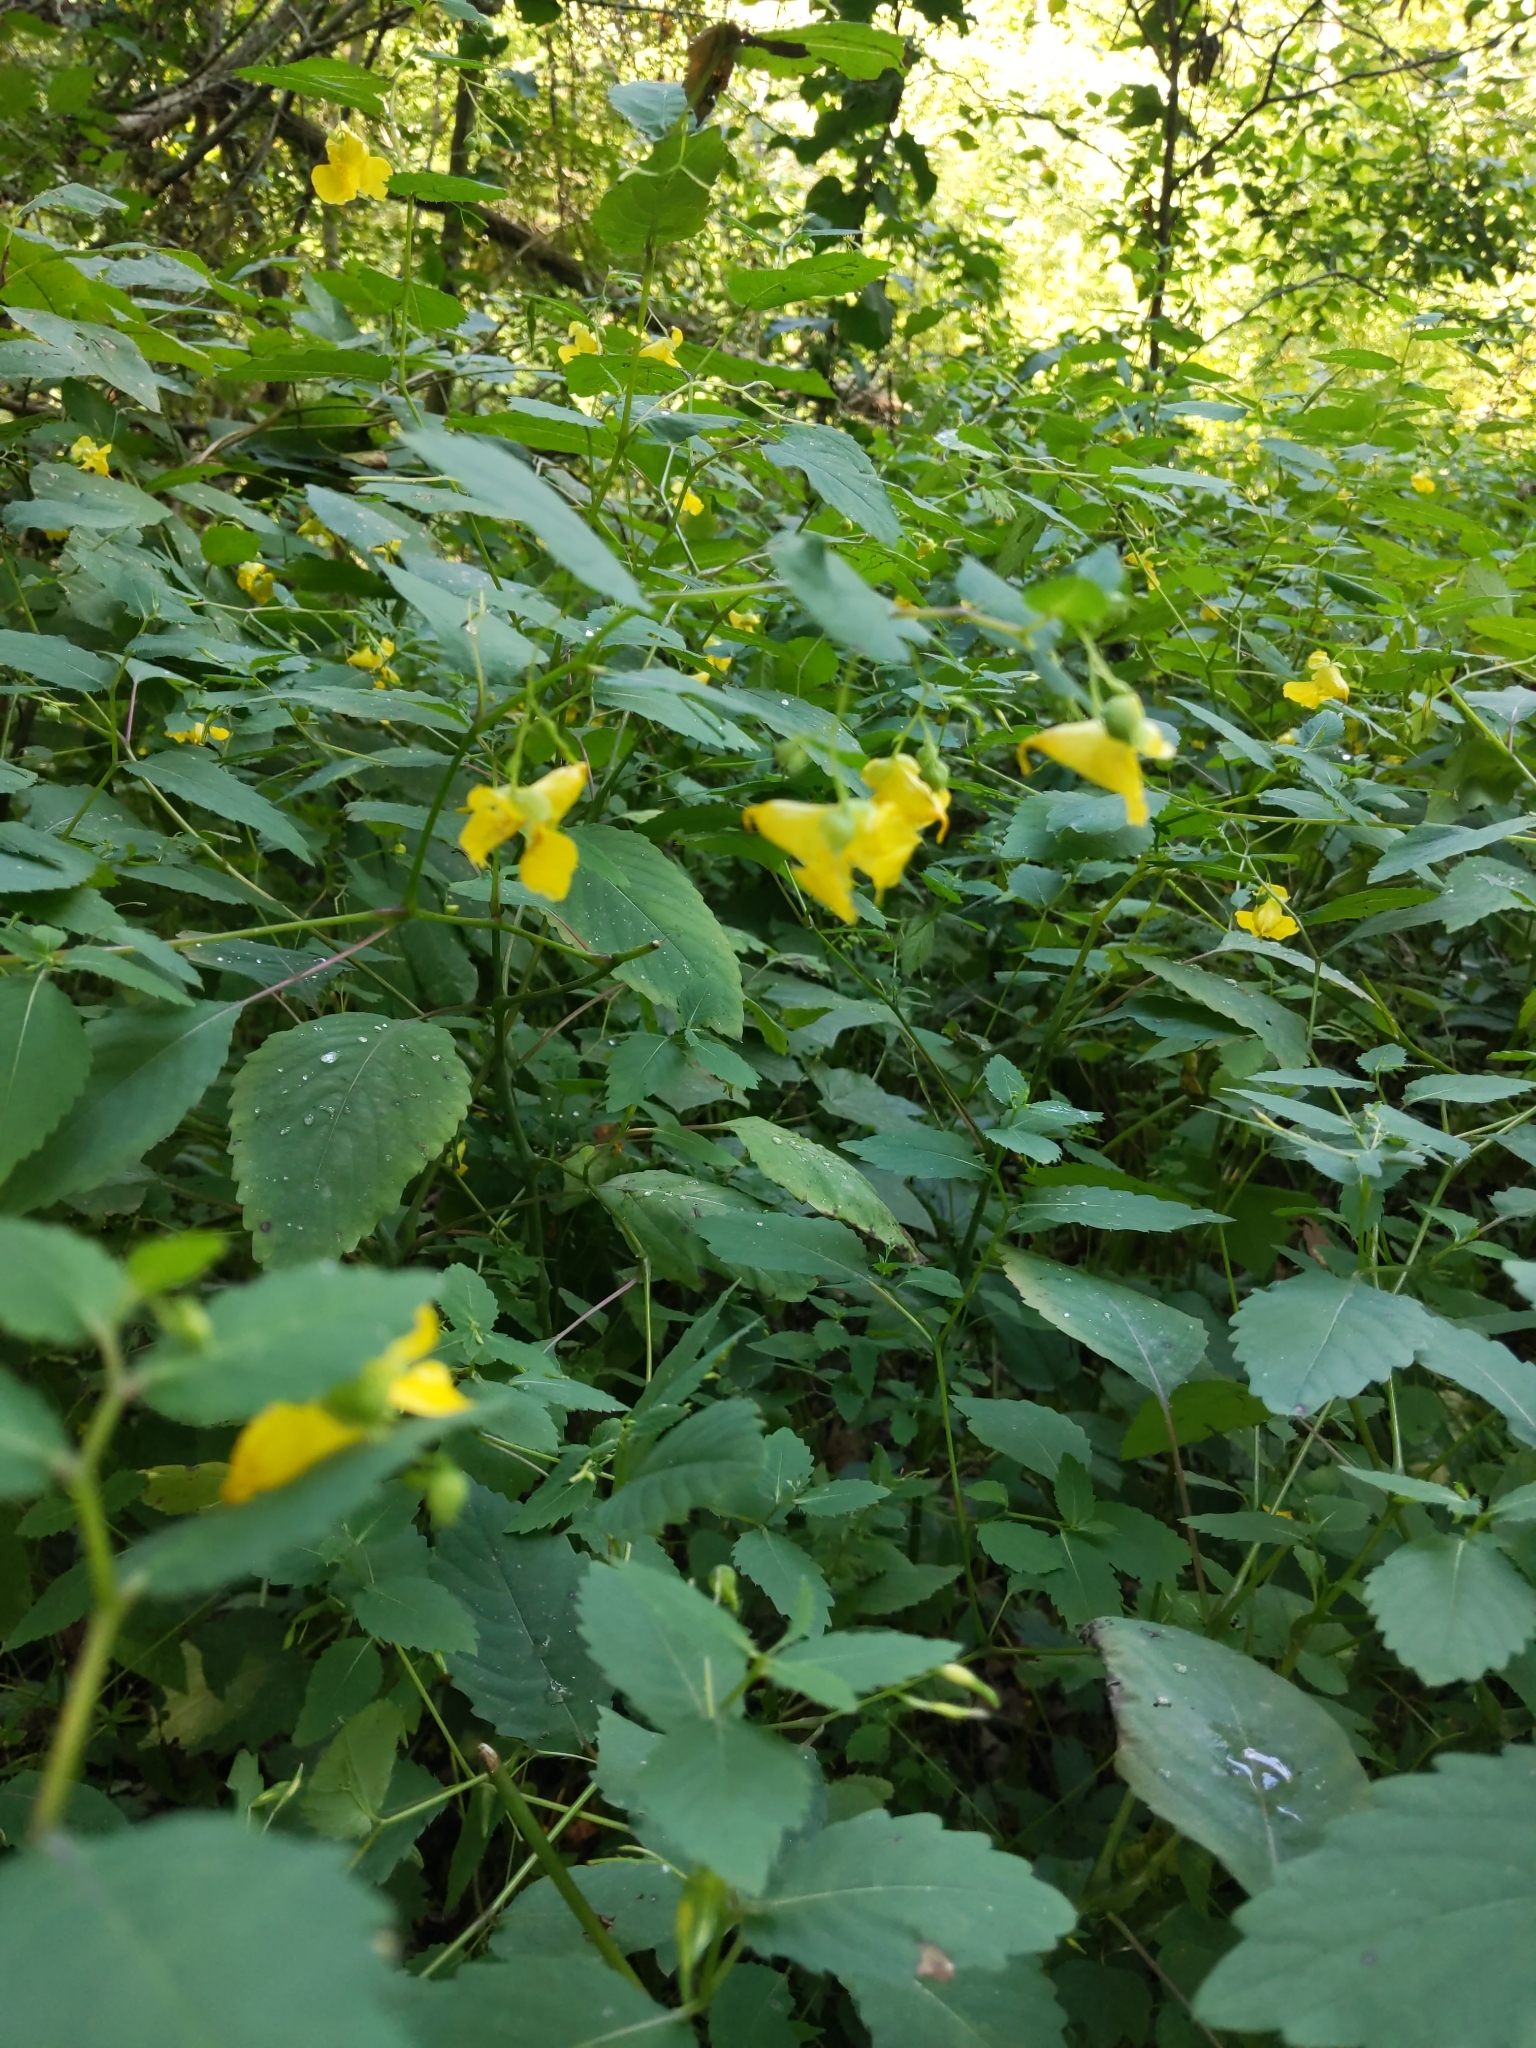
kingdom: Plantae
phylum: Tracheophyta
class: Magnoliopsida
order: Ericales
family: Balsaminaceae
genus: Impatiens
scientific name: Impatiens pallida
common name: Pale snapweed
